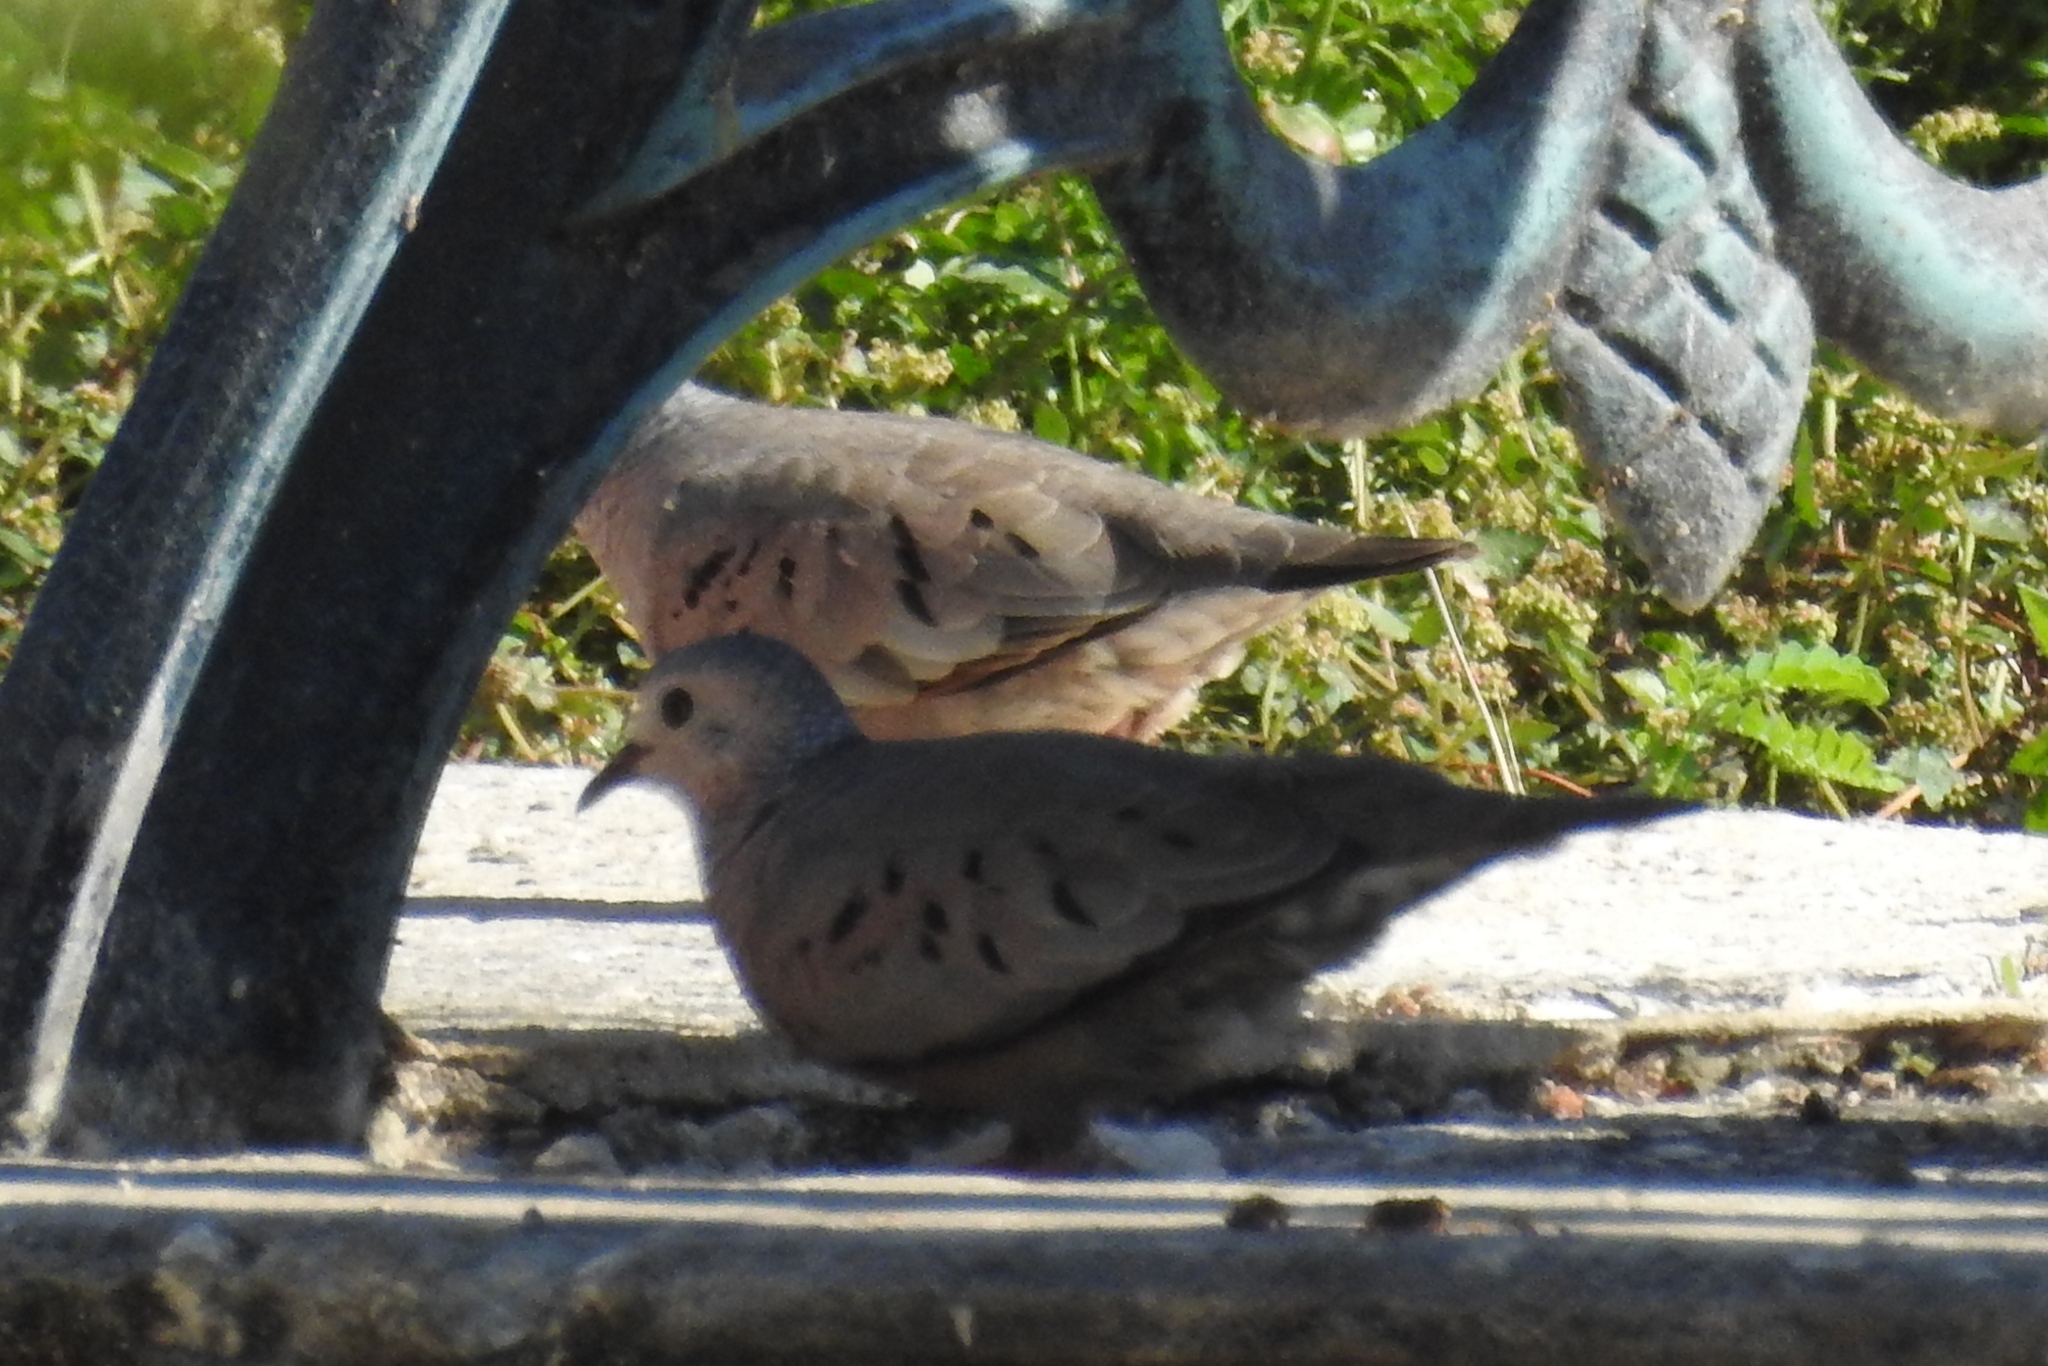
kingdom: Animalia
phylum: Chordata
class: Aves
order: Columbiformes
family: Columbidae
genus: Columbina
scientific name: Columbina passerina
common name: Common ground-dove
